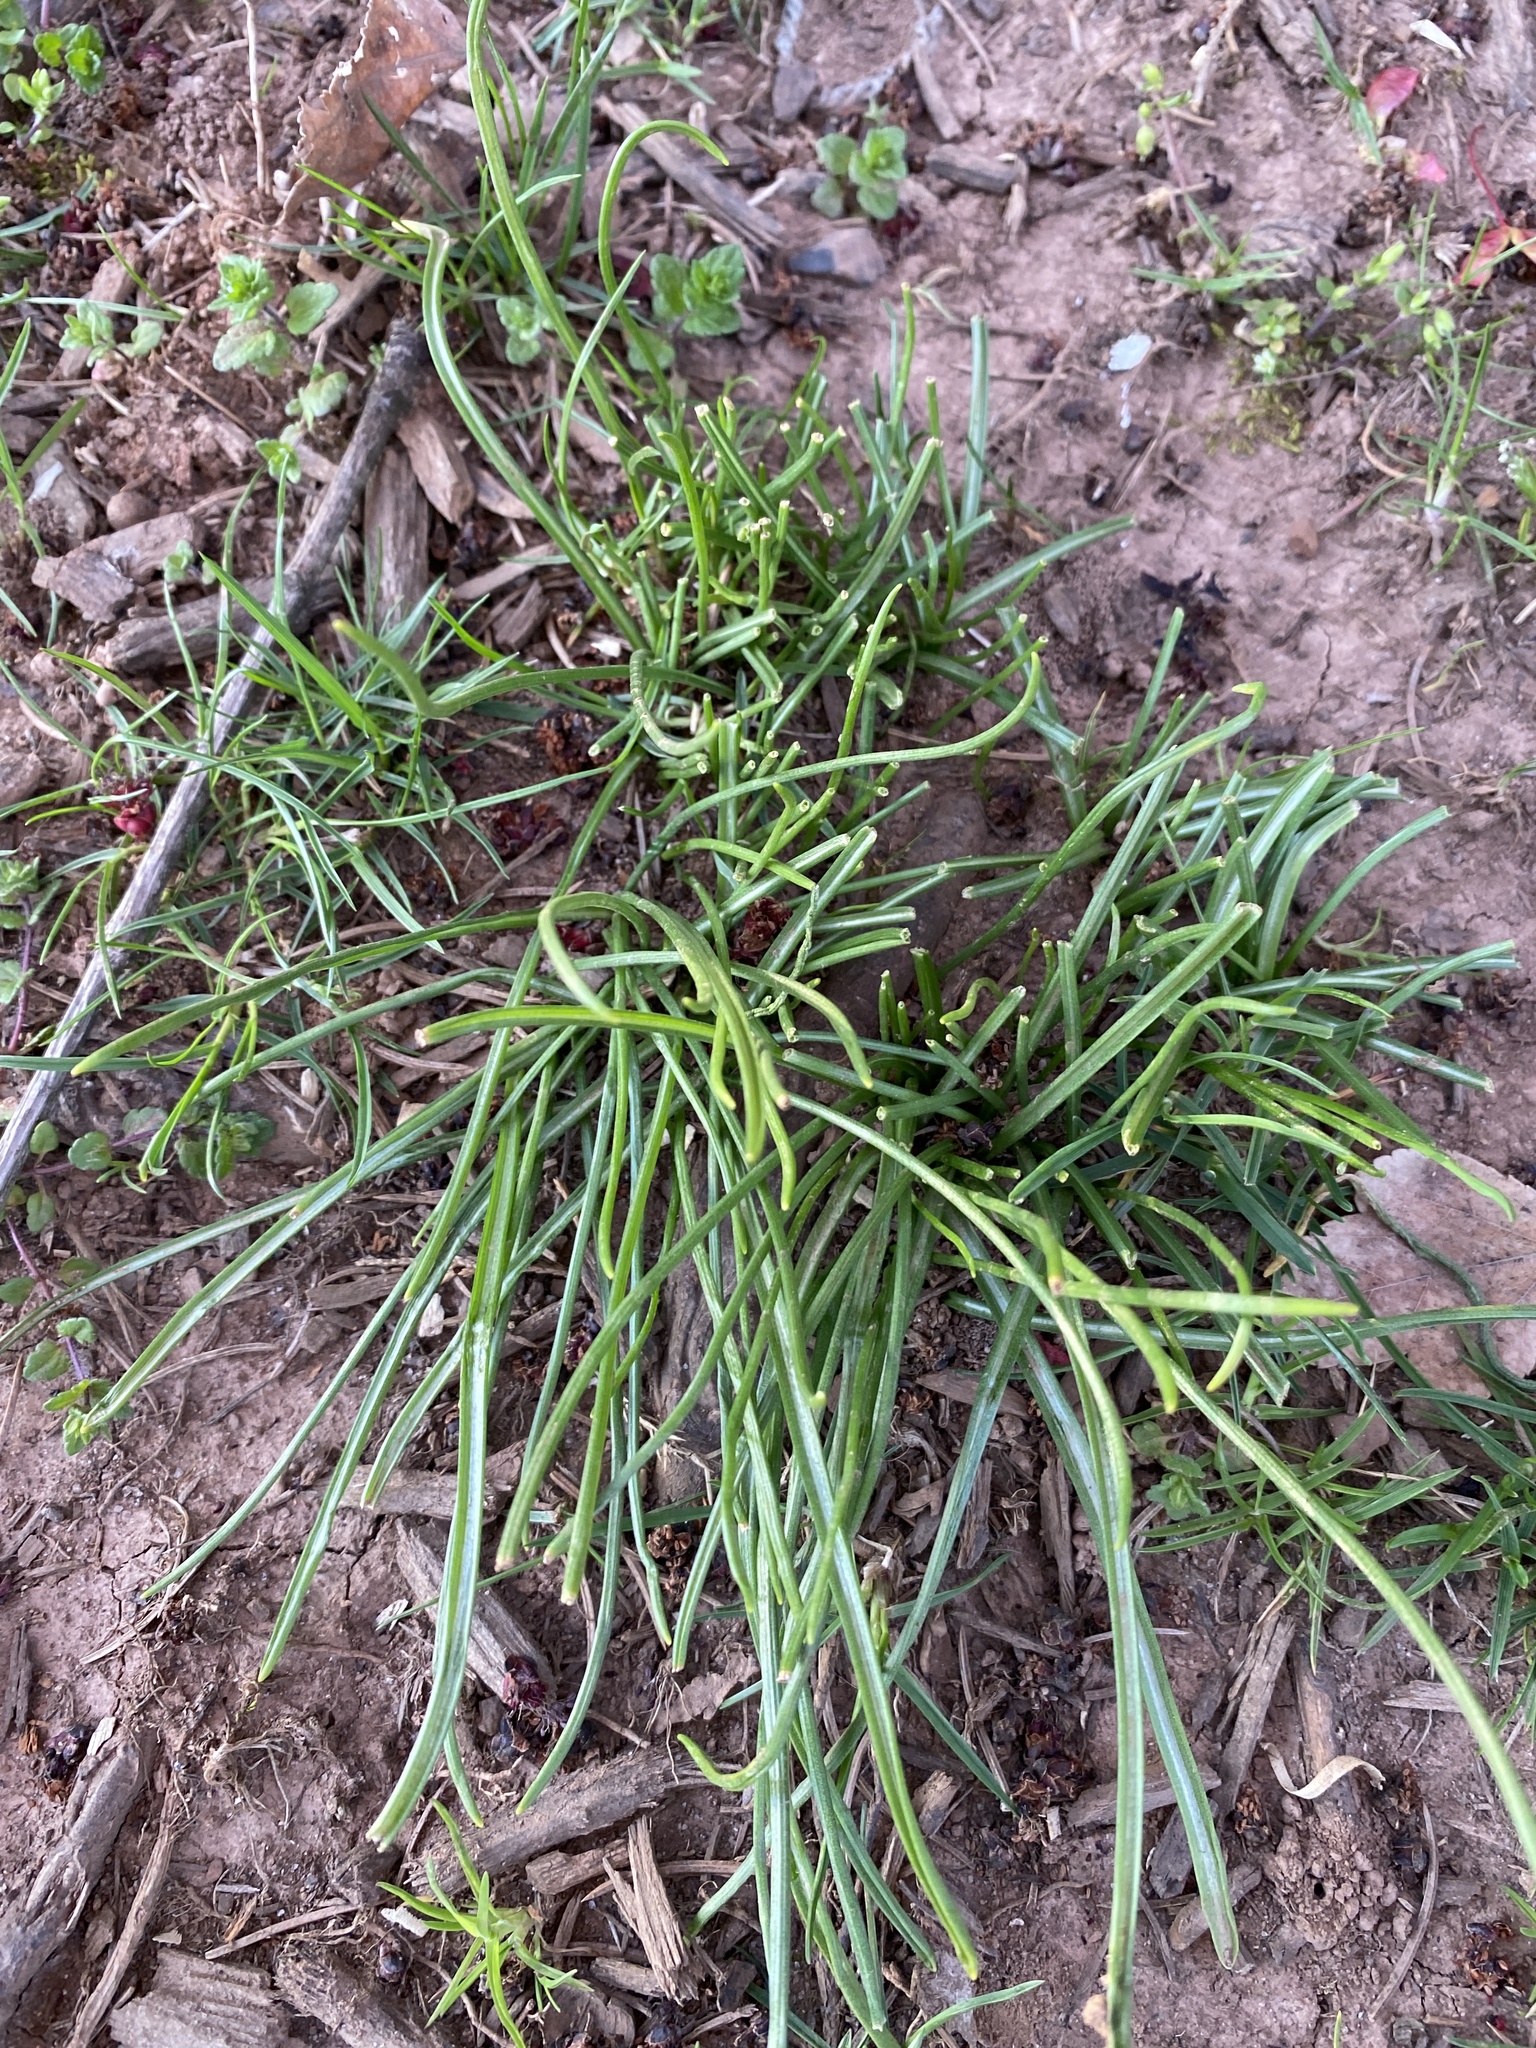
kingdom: Plantae
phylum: Tracheophyta
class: Liliopsida
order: Asparagales
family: Asparagaceae
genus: Ornithogalum
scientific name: Ornithogalum umbellatum
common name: Garden star-of-bethlehem
